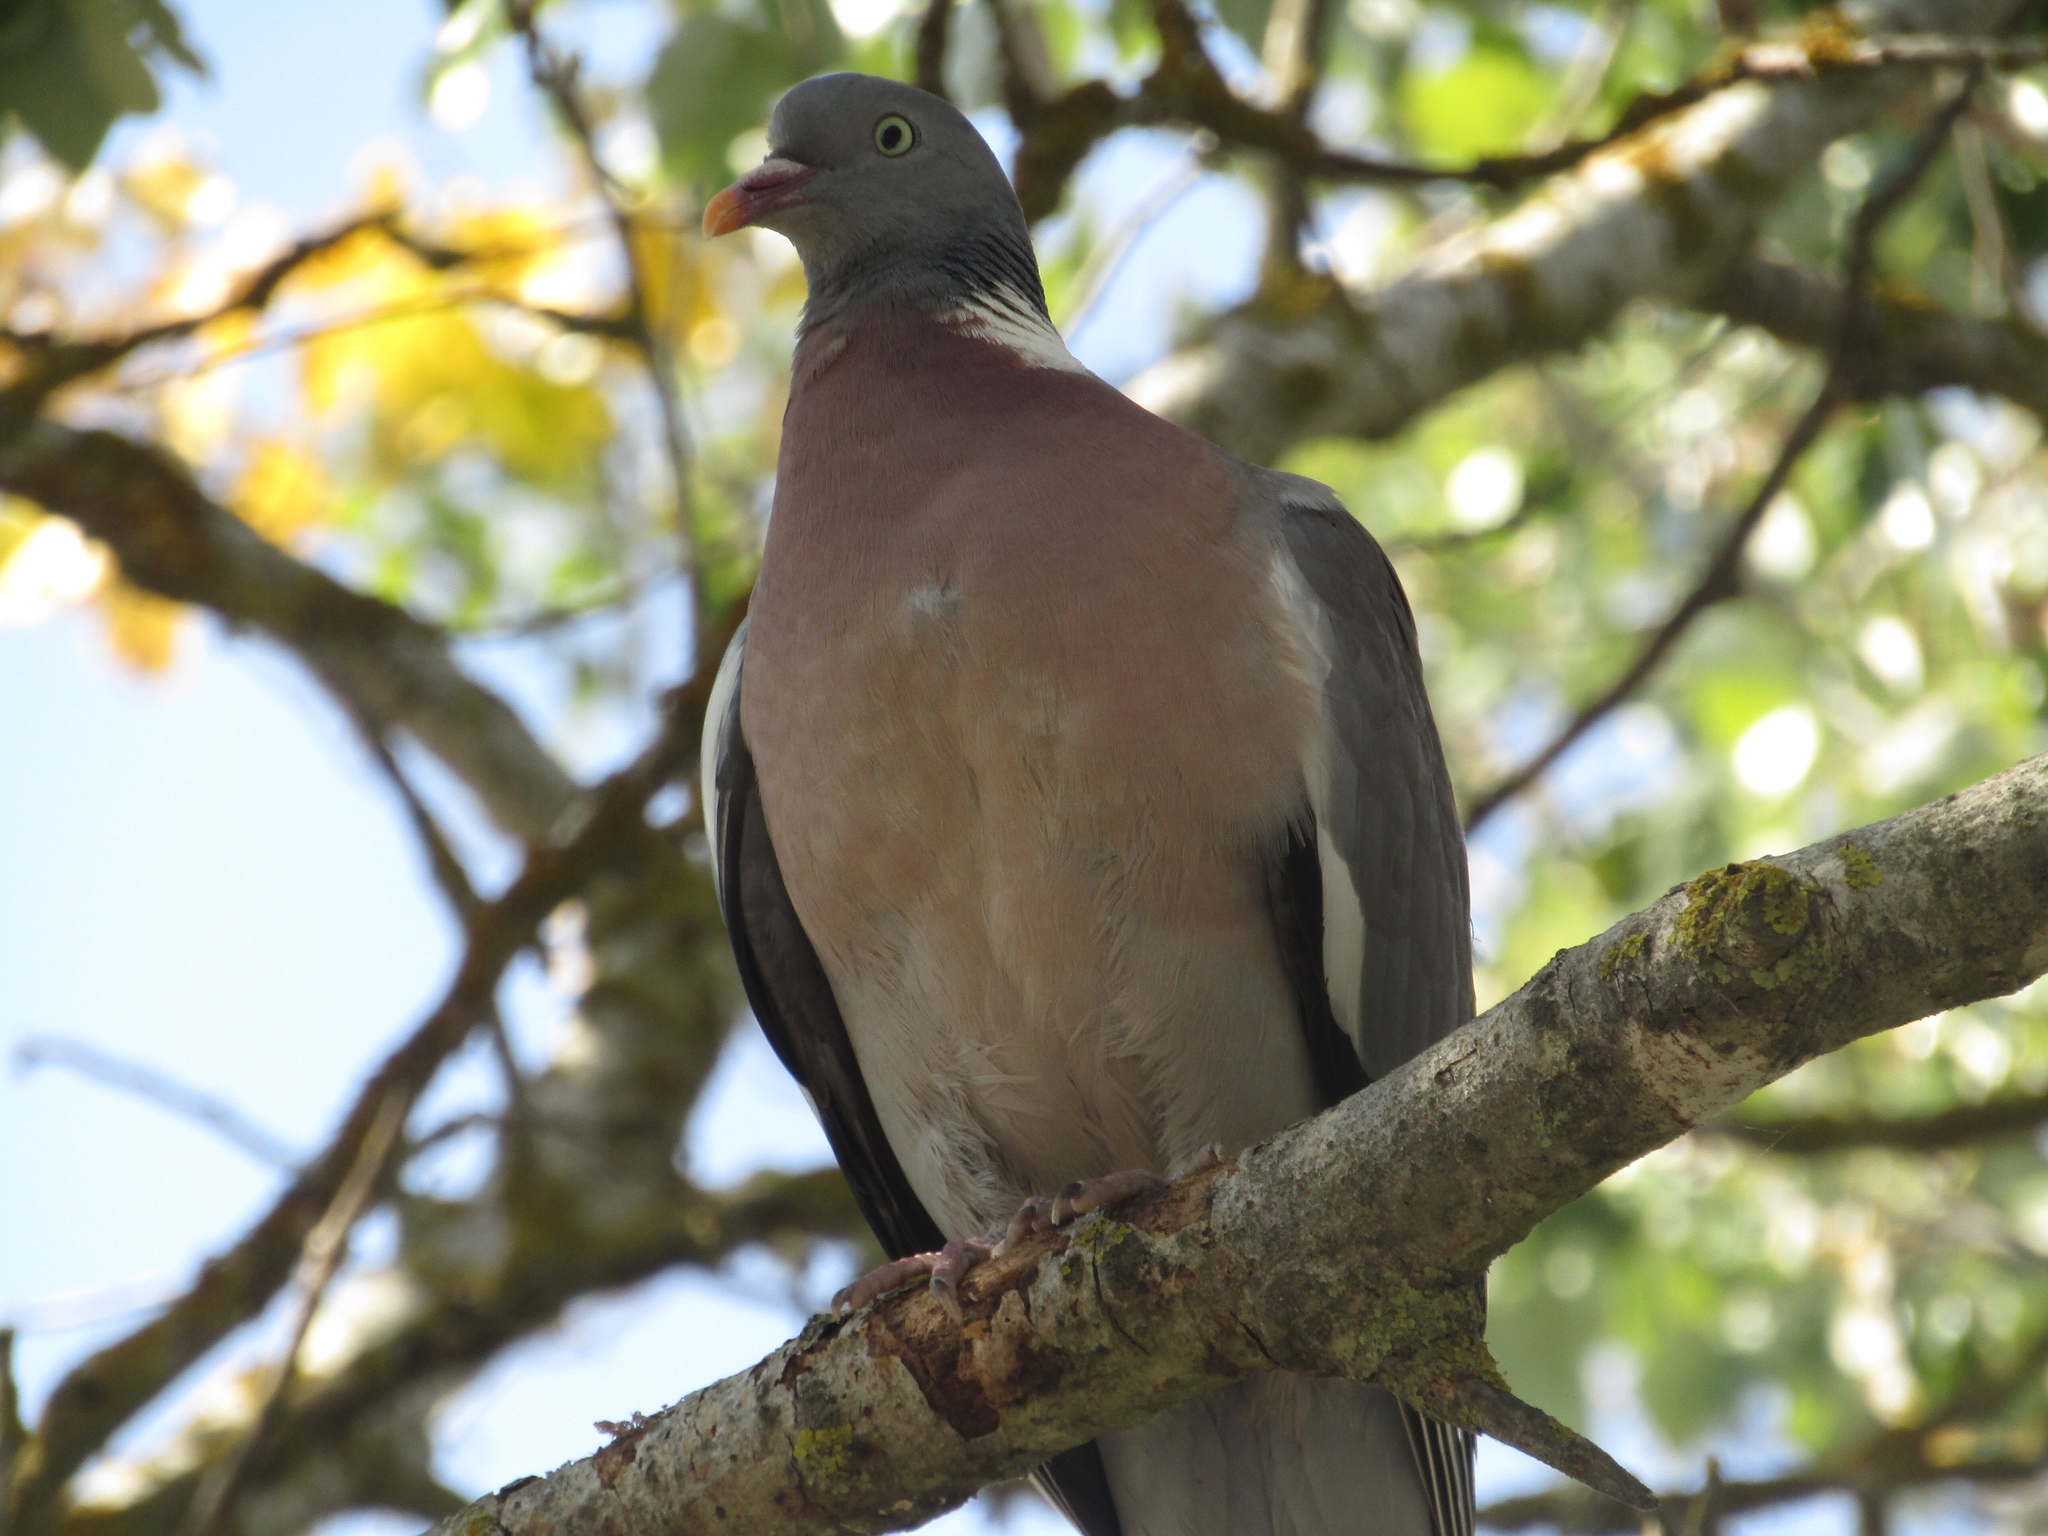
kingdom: Animalia
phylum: Chordata
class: Aves
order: Columbiformes
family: Columbidae
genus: Columba
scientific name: Columba palumbus
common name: Common wood pigeon
